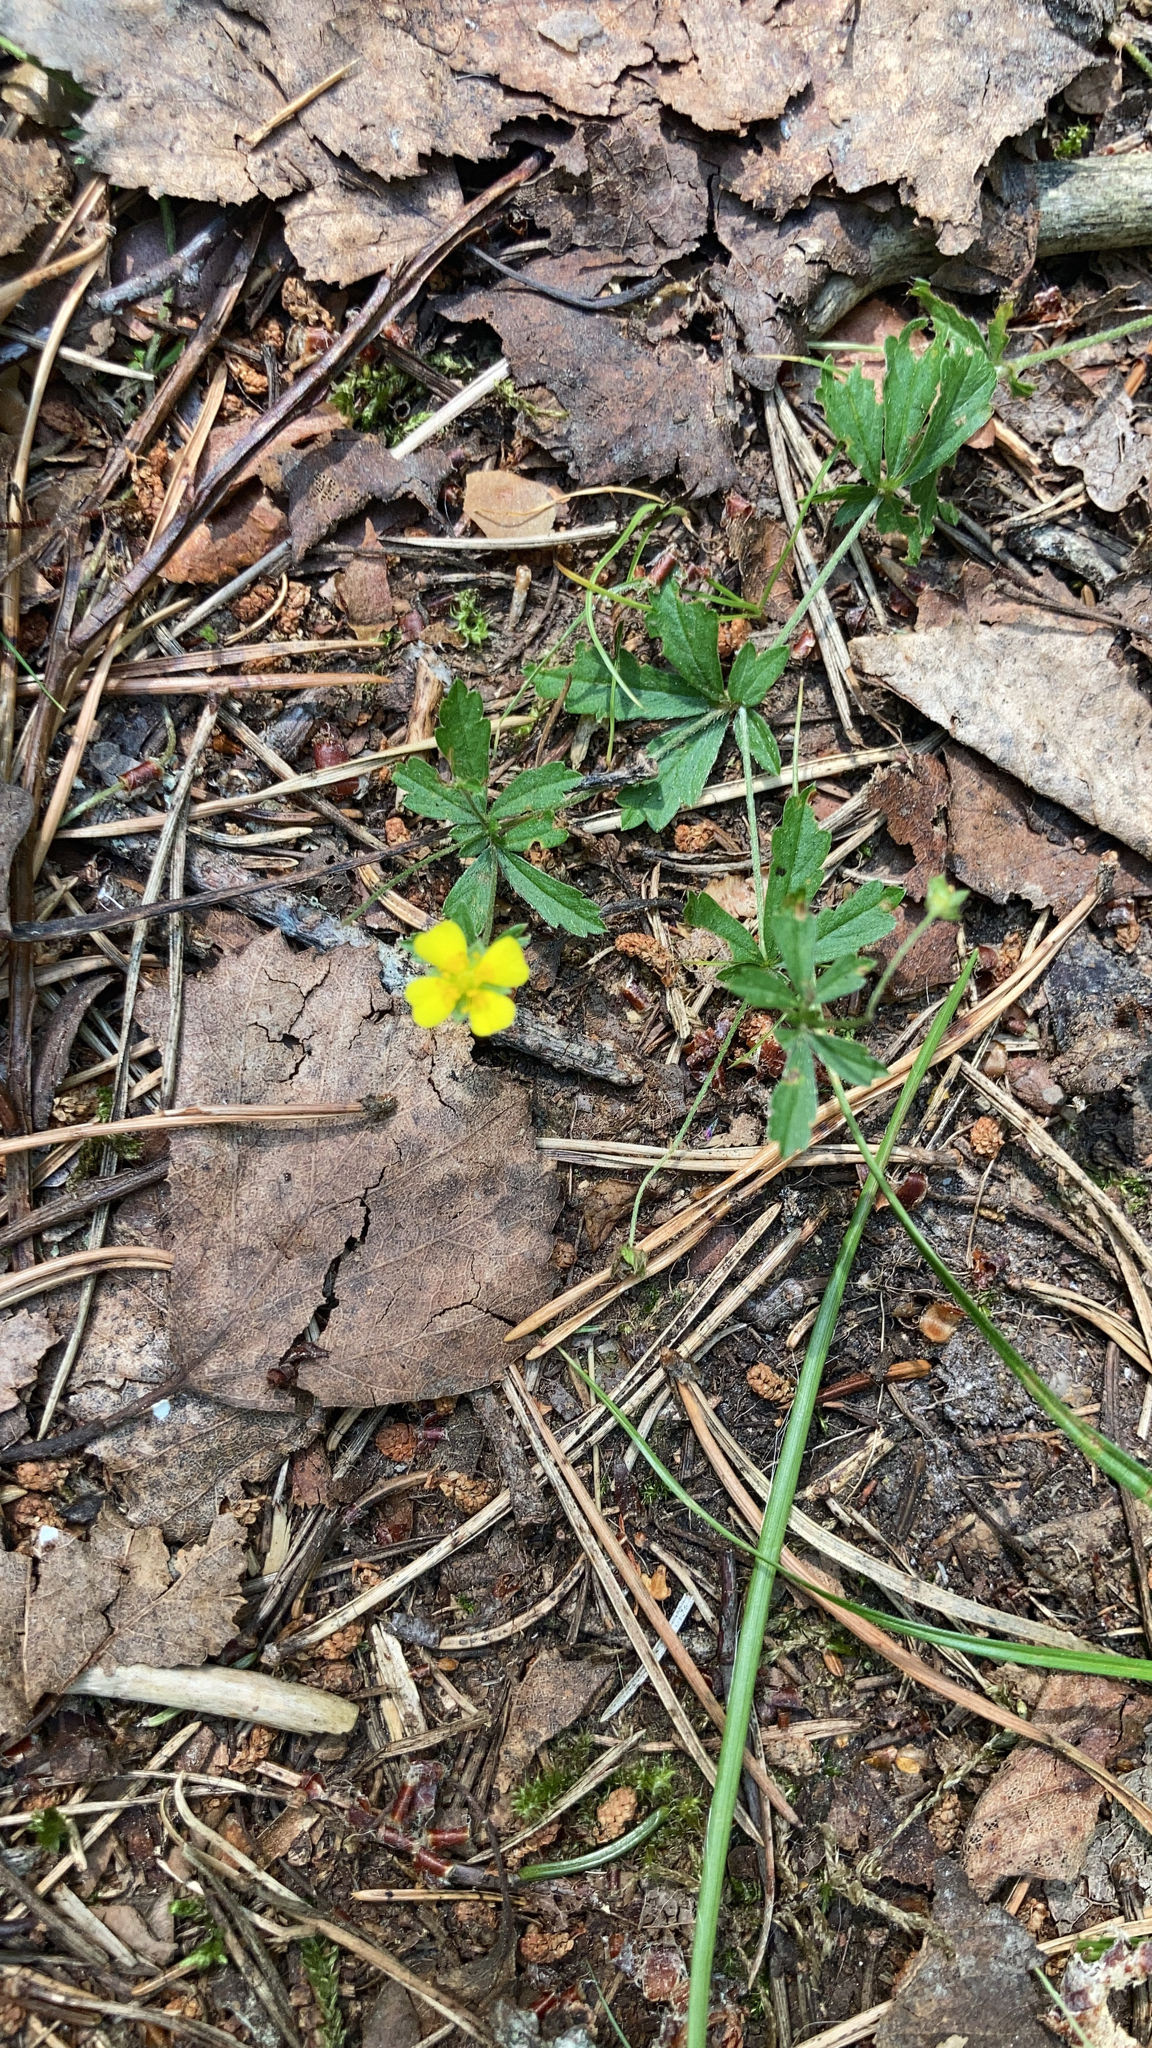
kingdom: Plantae
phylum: Tracheophyta
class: Magnoliopsida
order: Rosales
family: Rosaceae
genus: Potentilla
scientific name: Potentilla erecta
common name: Tormentil
